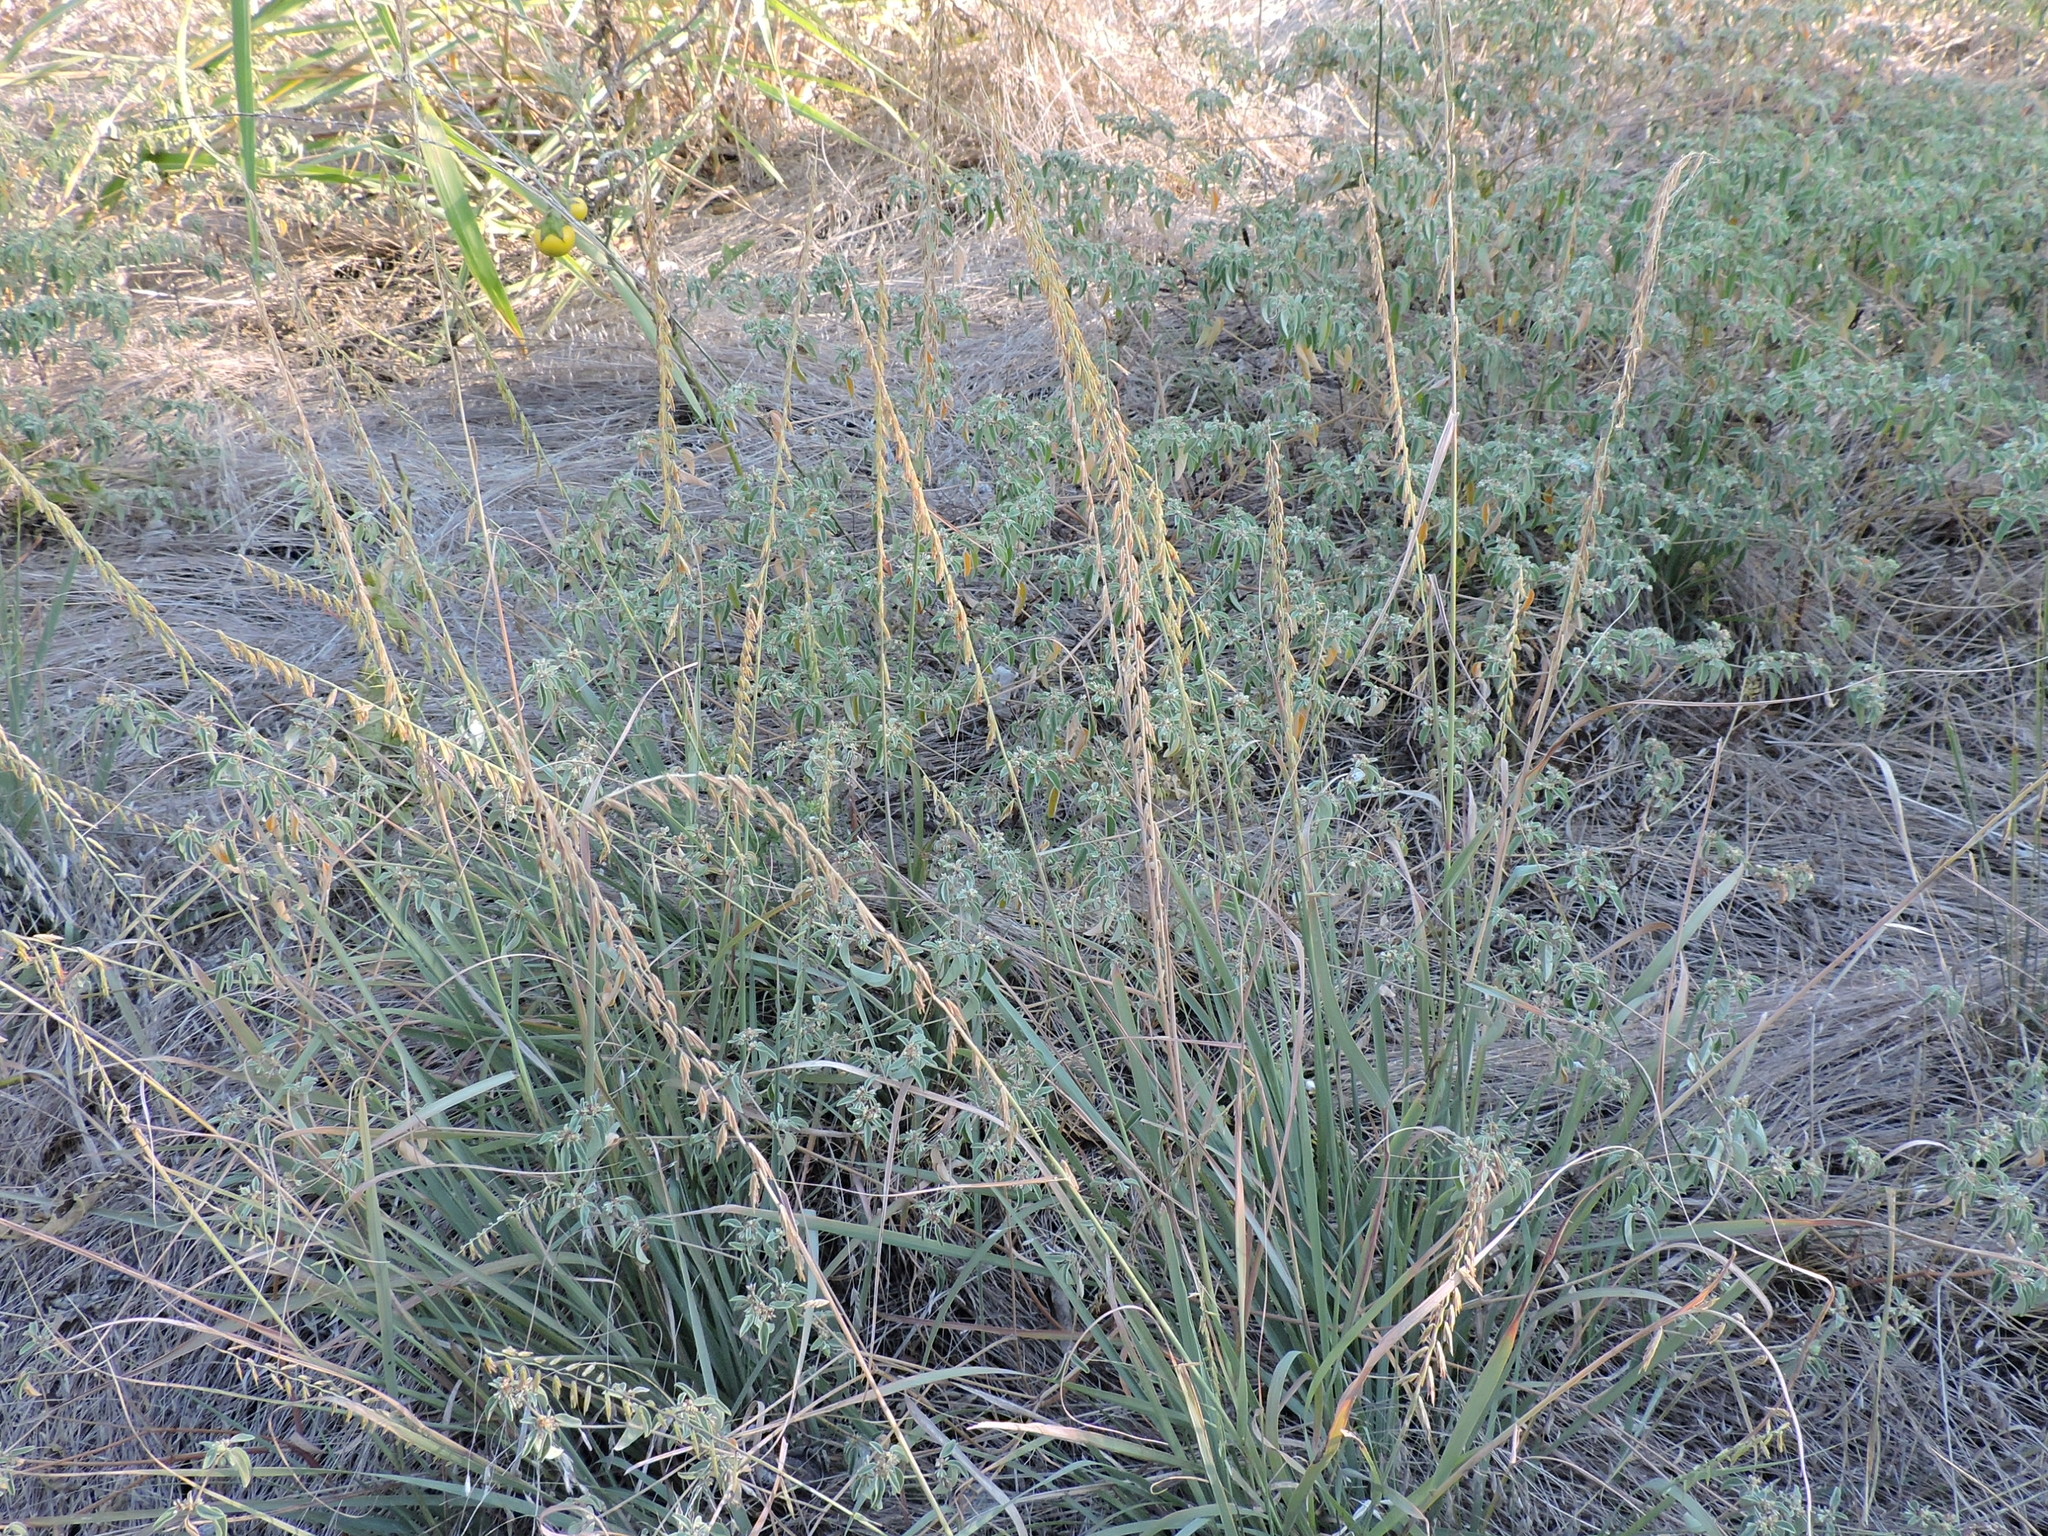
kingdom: Plantae
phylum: Tracheophyta
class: Liliopsida
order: Poales
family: Poaceae
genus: Bouteloua
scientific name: Bouteloua curtipendula
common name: Side-oats grama
